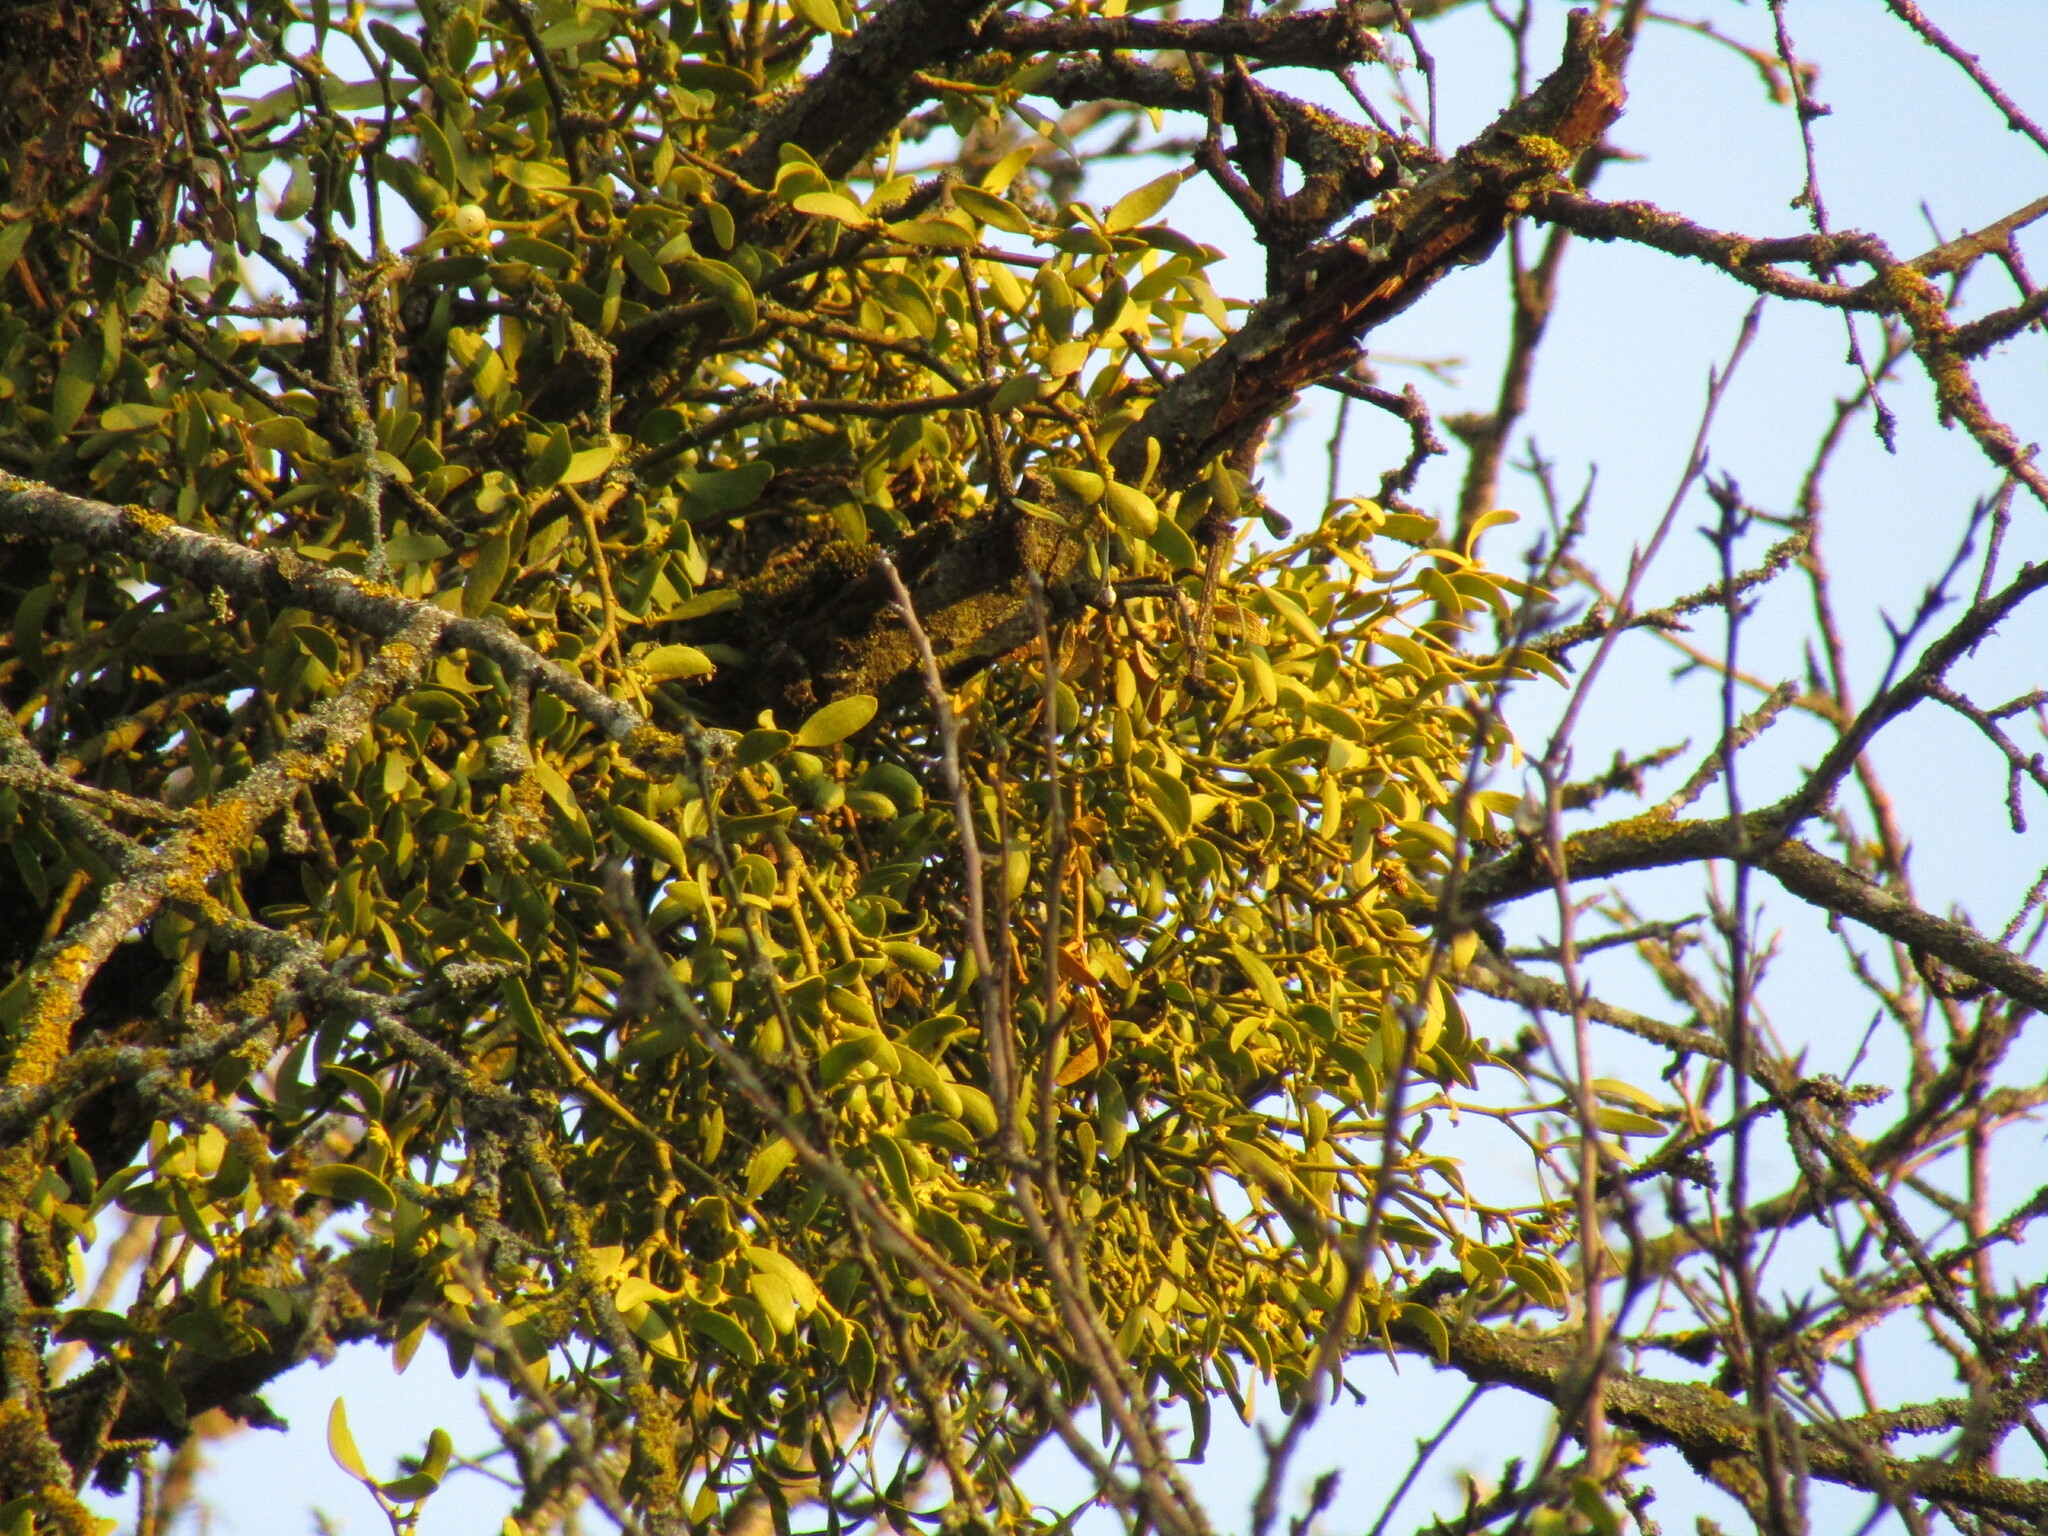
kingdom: Plantae
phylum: Tracheophyta
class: Magnoliopsida
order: Santalales
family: Viscaceae
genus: Viscum
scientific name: Viscum album
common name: Mistletoe
